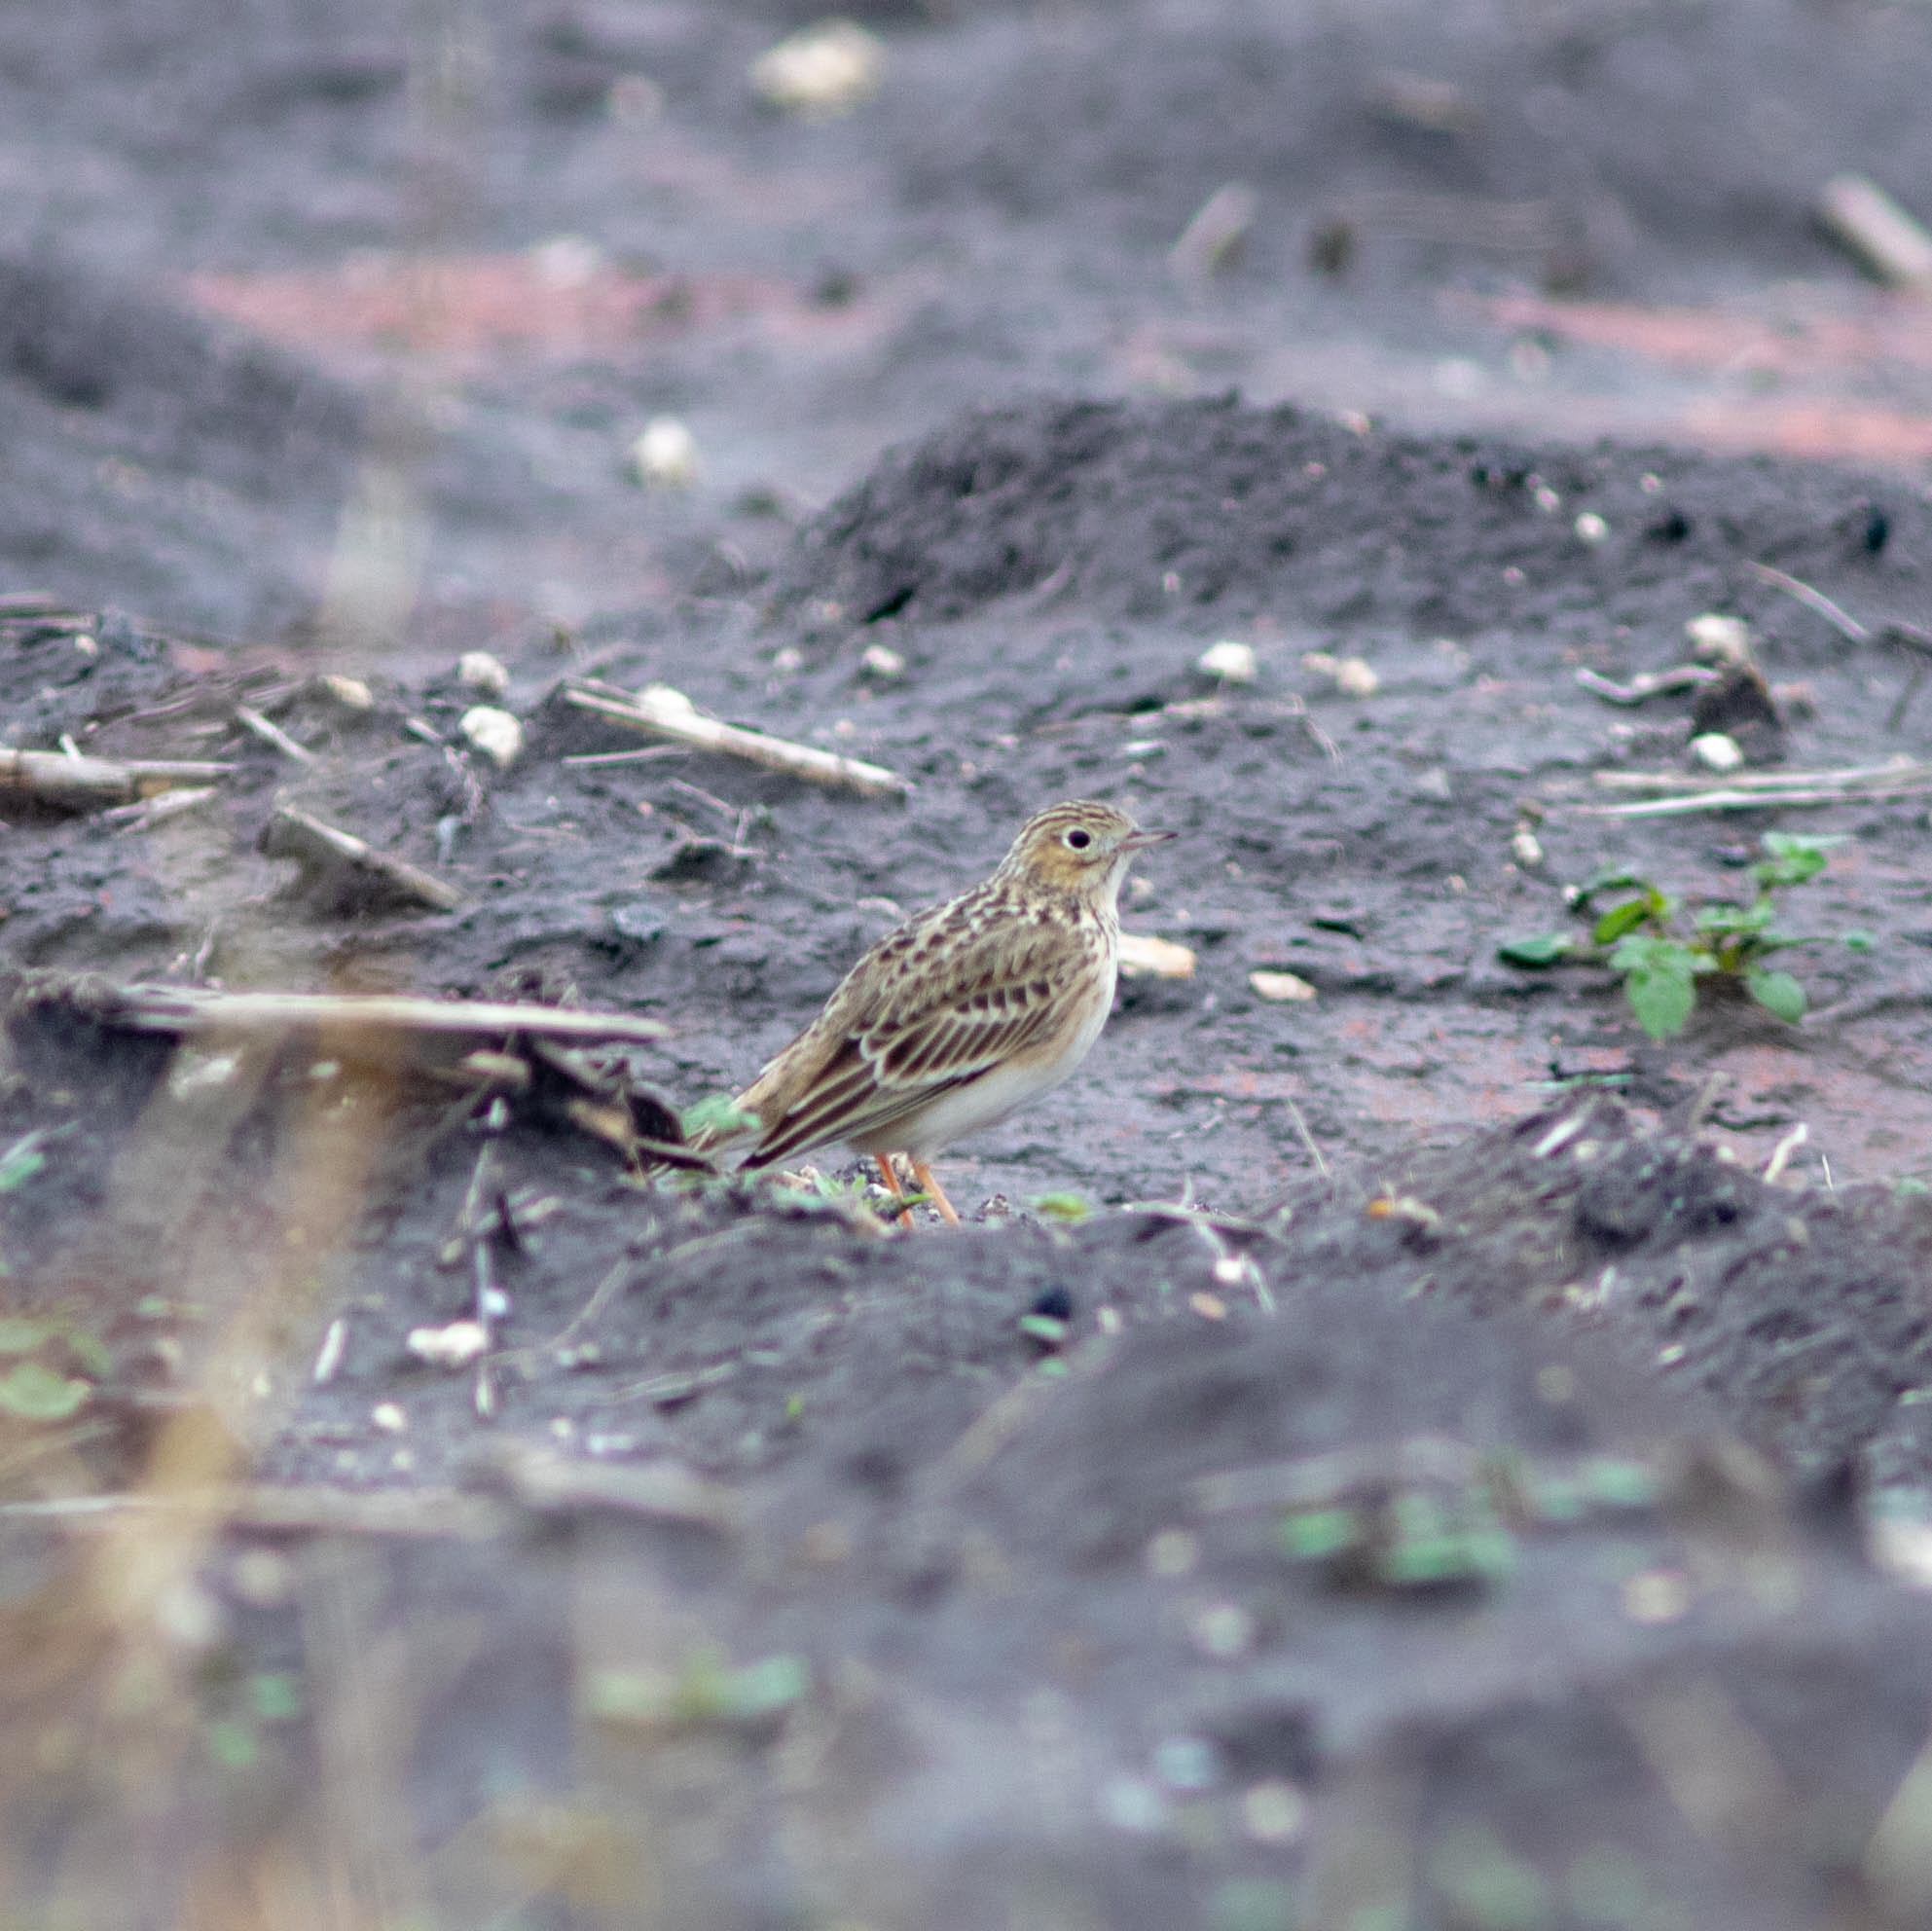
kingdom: Animalia
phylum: Chordata
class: Aves
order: Passeriformes
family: Motacillidae
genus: Anthus
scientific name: Anthus spragueii
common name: Sprague's pipit
